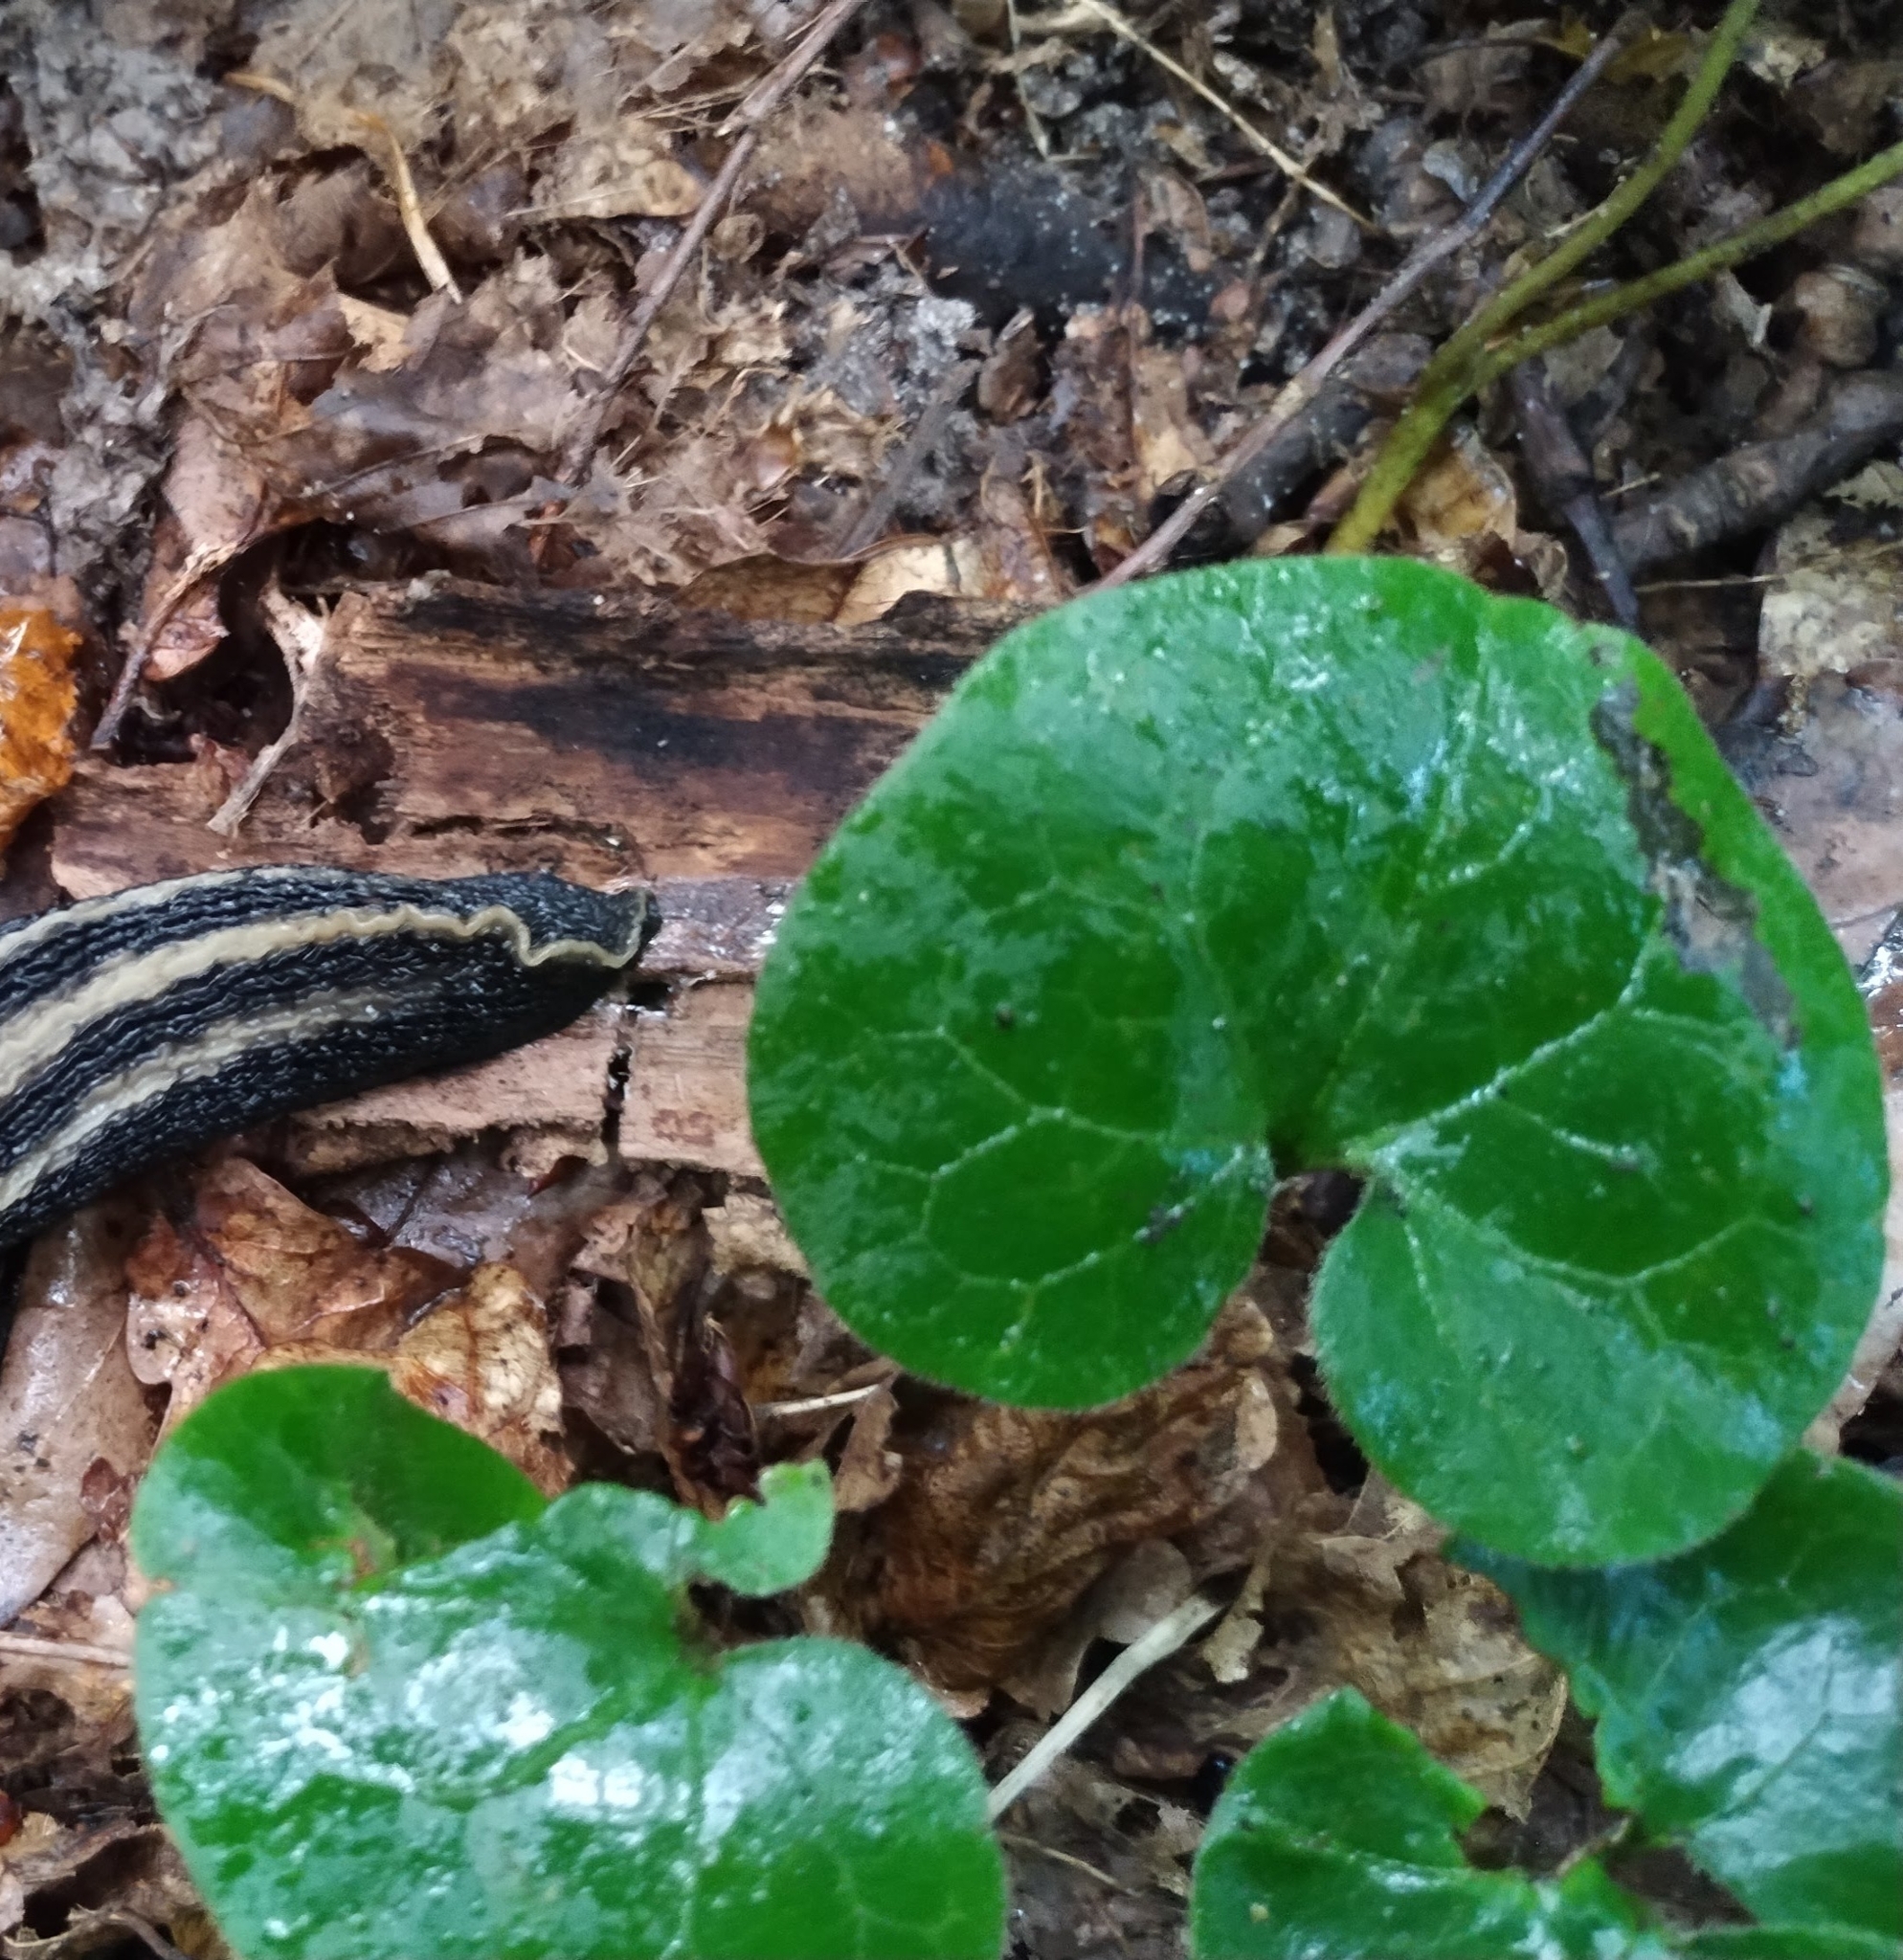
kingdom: Plantae
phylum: Tracheophyta
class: Magnoliopsida
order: Piperales
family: Aristolochiaceae
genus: Asarum
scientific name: Asarum europaeum
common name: Asarabacca
